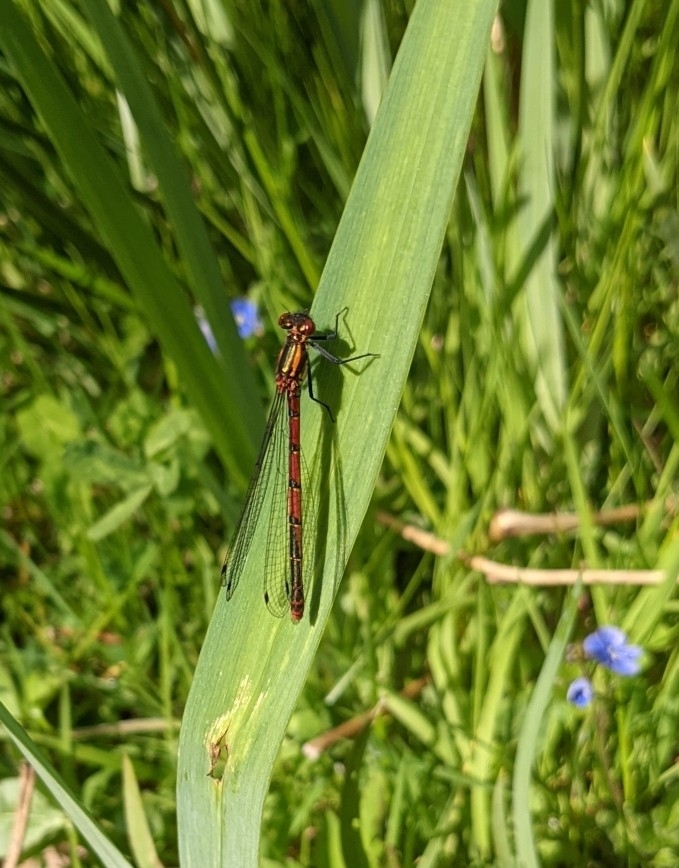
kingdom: Animalia
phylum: Arthropoda
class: Insecta
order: Odonata
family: Coenagrionidae
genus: Pyrrhosoma
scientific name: Pyrrhosoma nymphula
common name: Large red damsel
